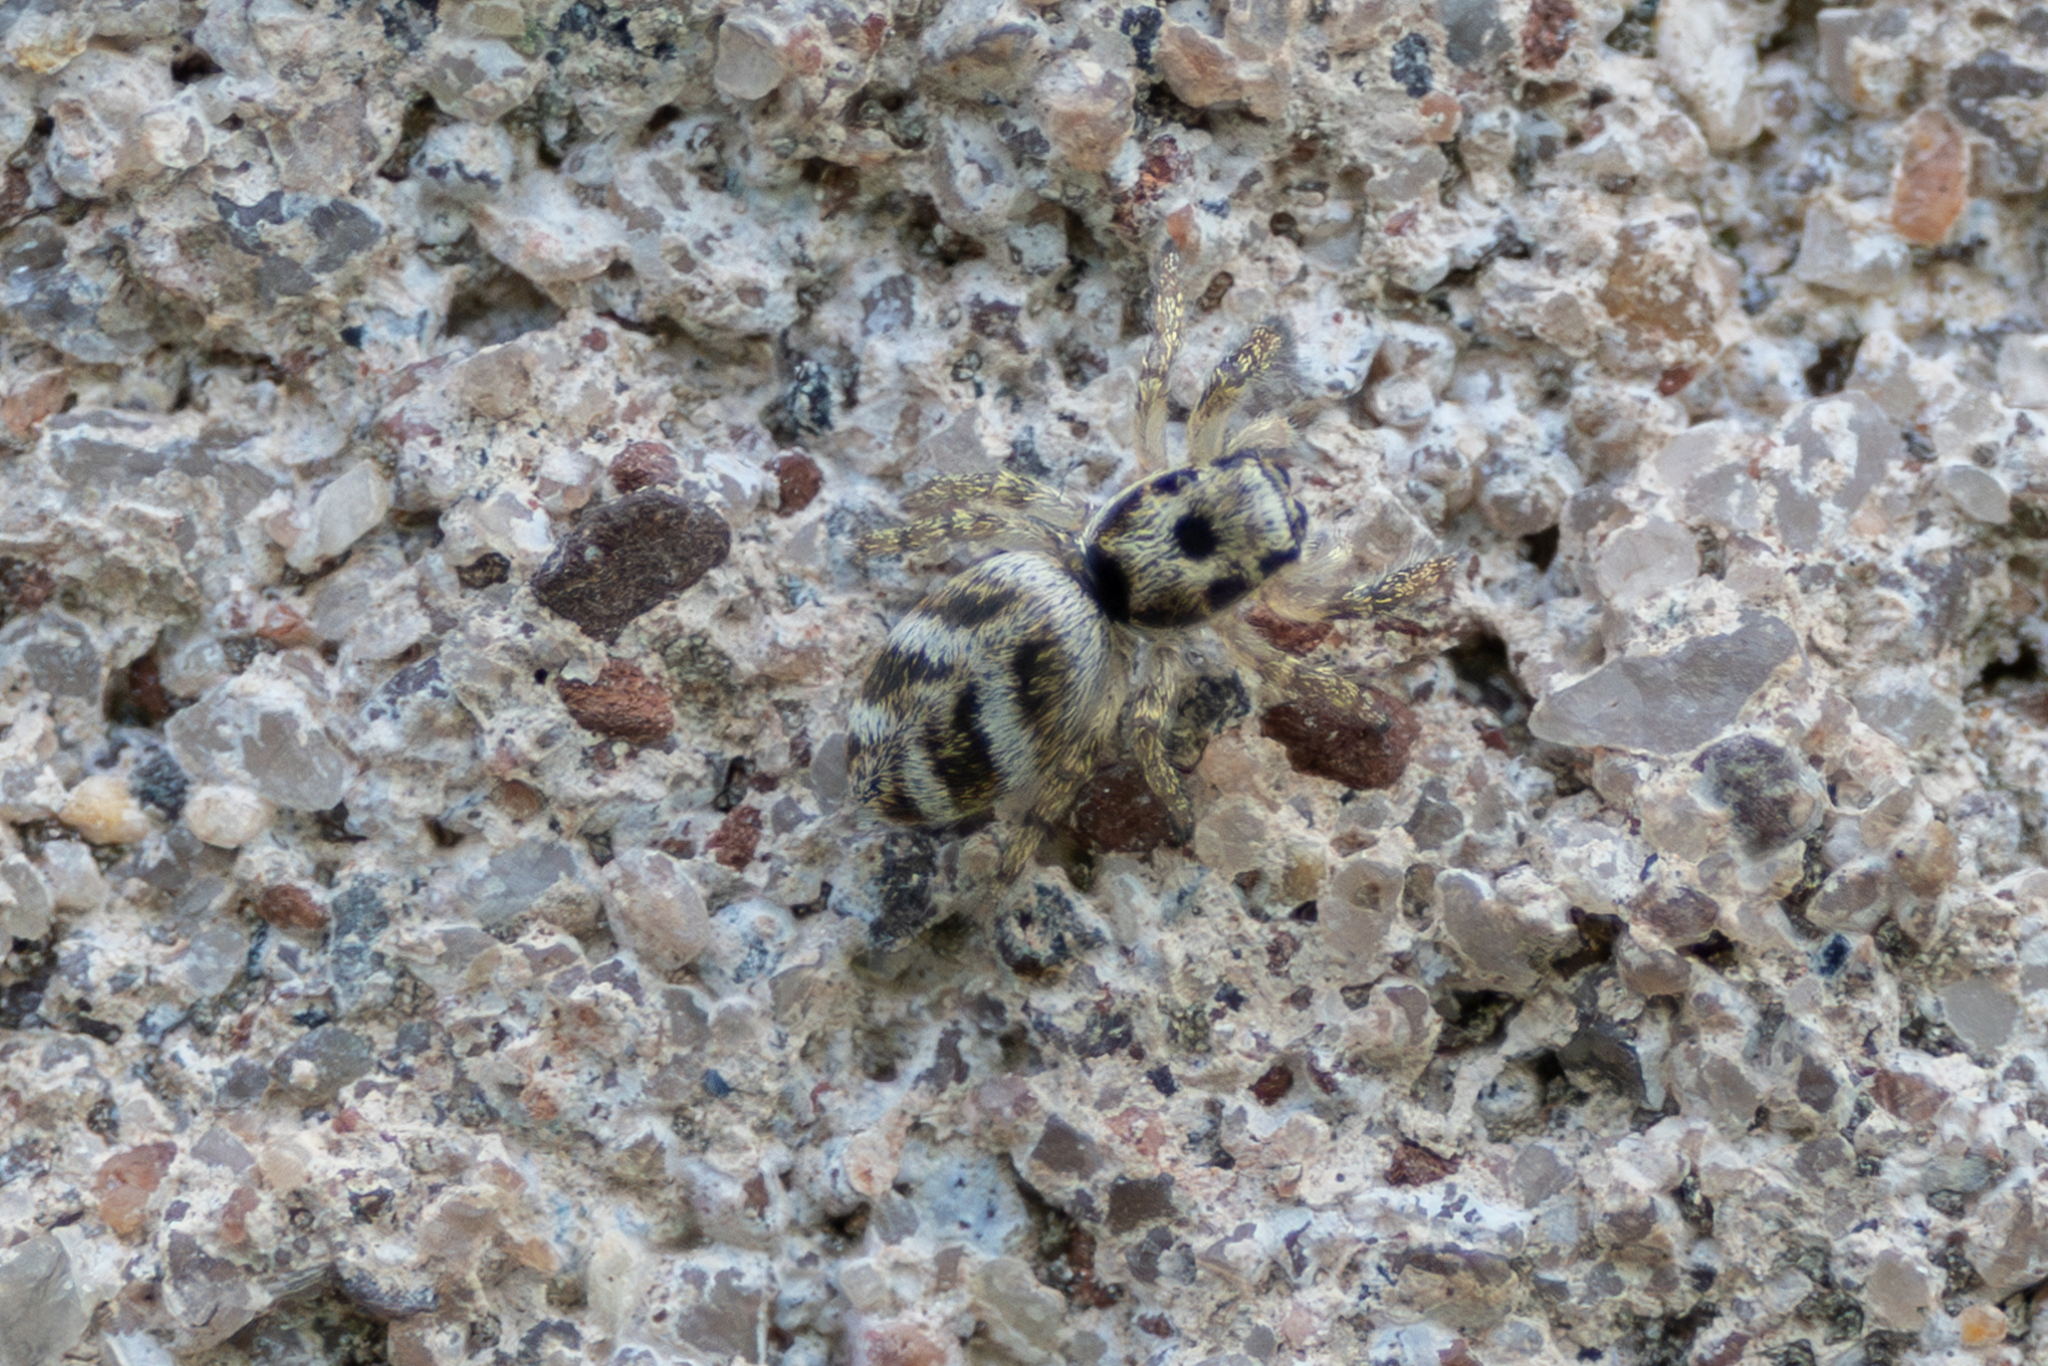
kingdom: Animalia
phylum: Arthropoda
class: Arachnida
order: Araneae
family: Salticidae
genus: Salticus
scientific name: Salticus scenicus
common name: Zebra jumper
